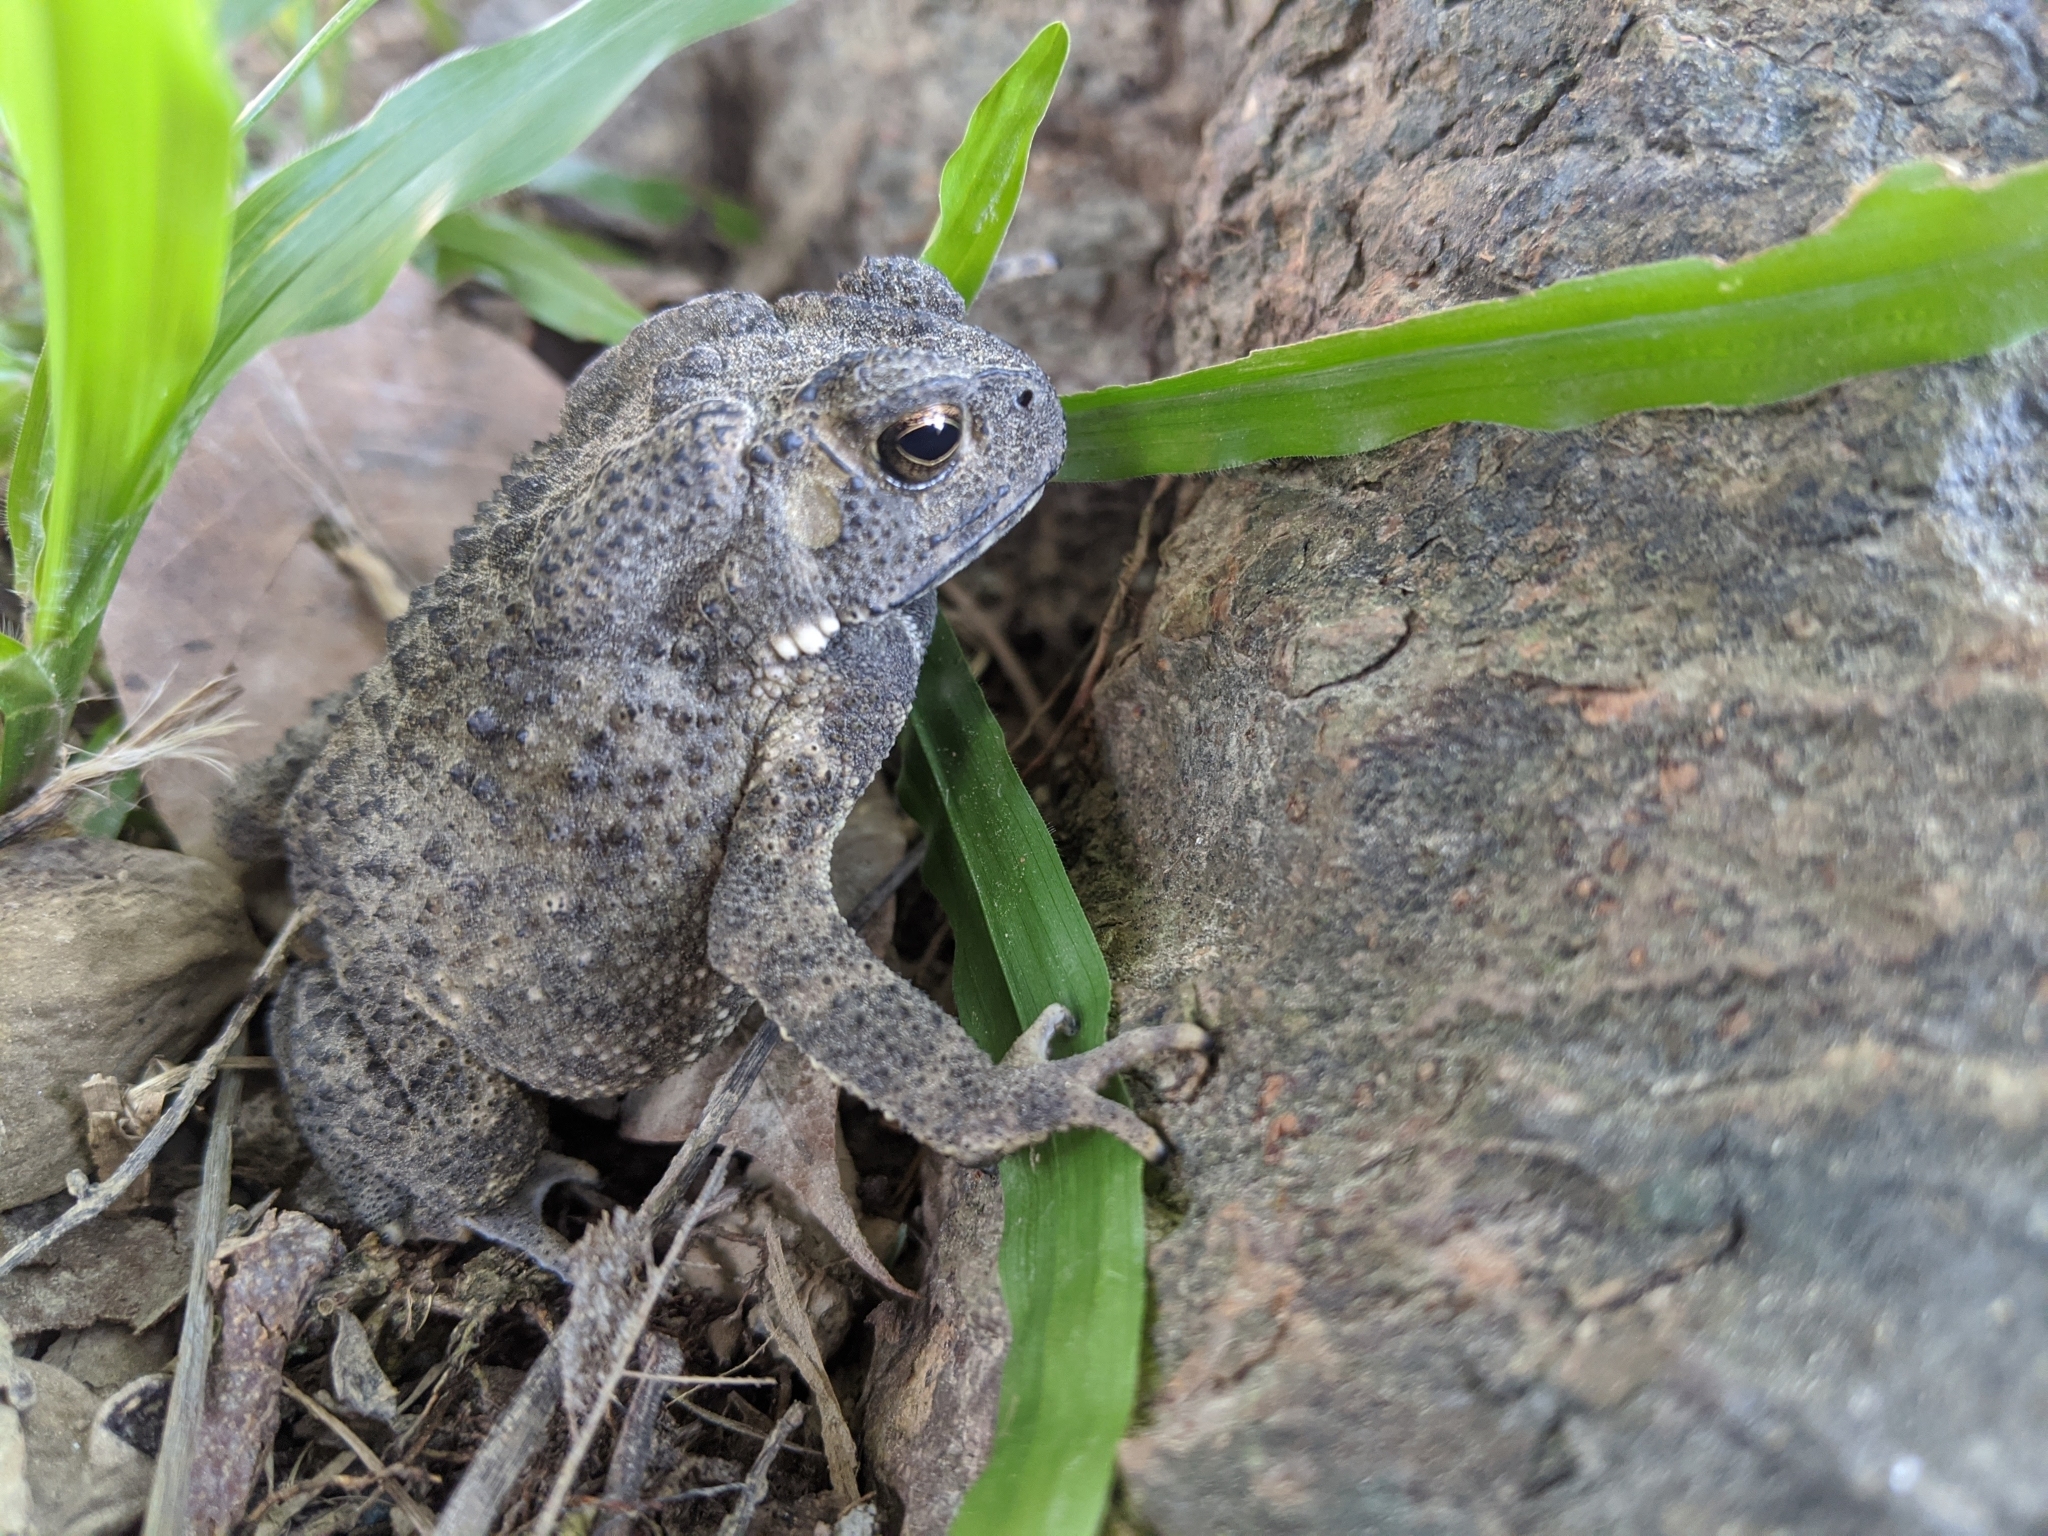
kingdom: Animalia
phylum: Chordata
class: Amphibia
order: Anura
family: Bufonidae
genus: Duttaphrynus
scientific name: Duttaphrynus melanostictus
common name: Common sunda toad
